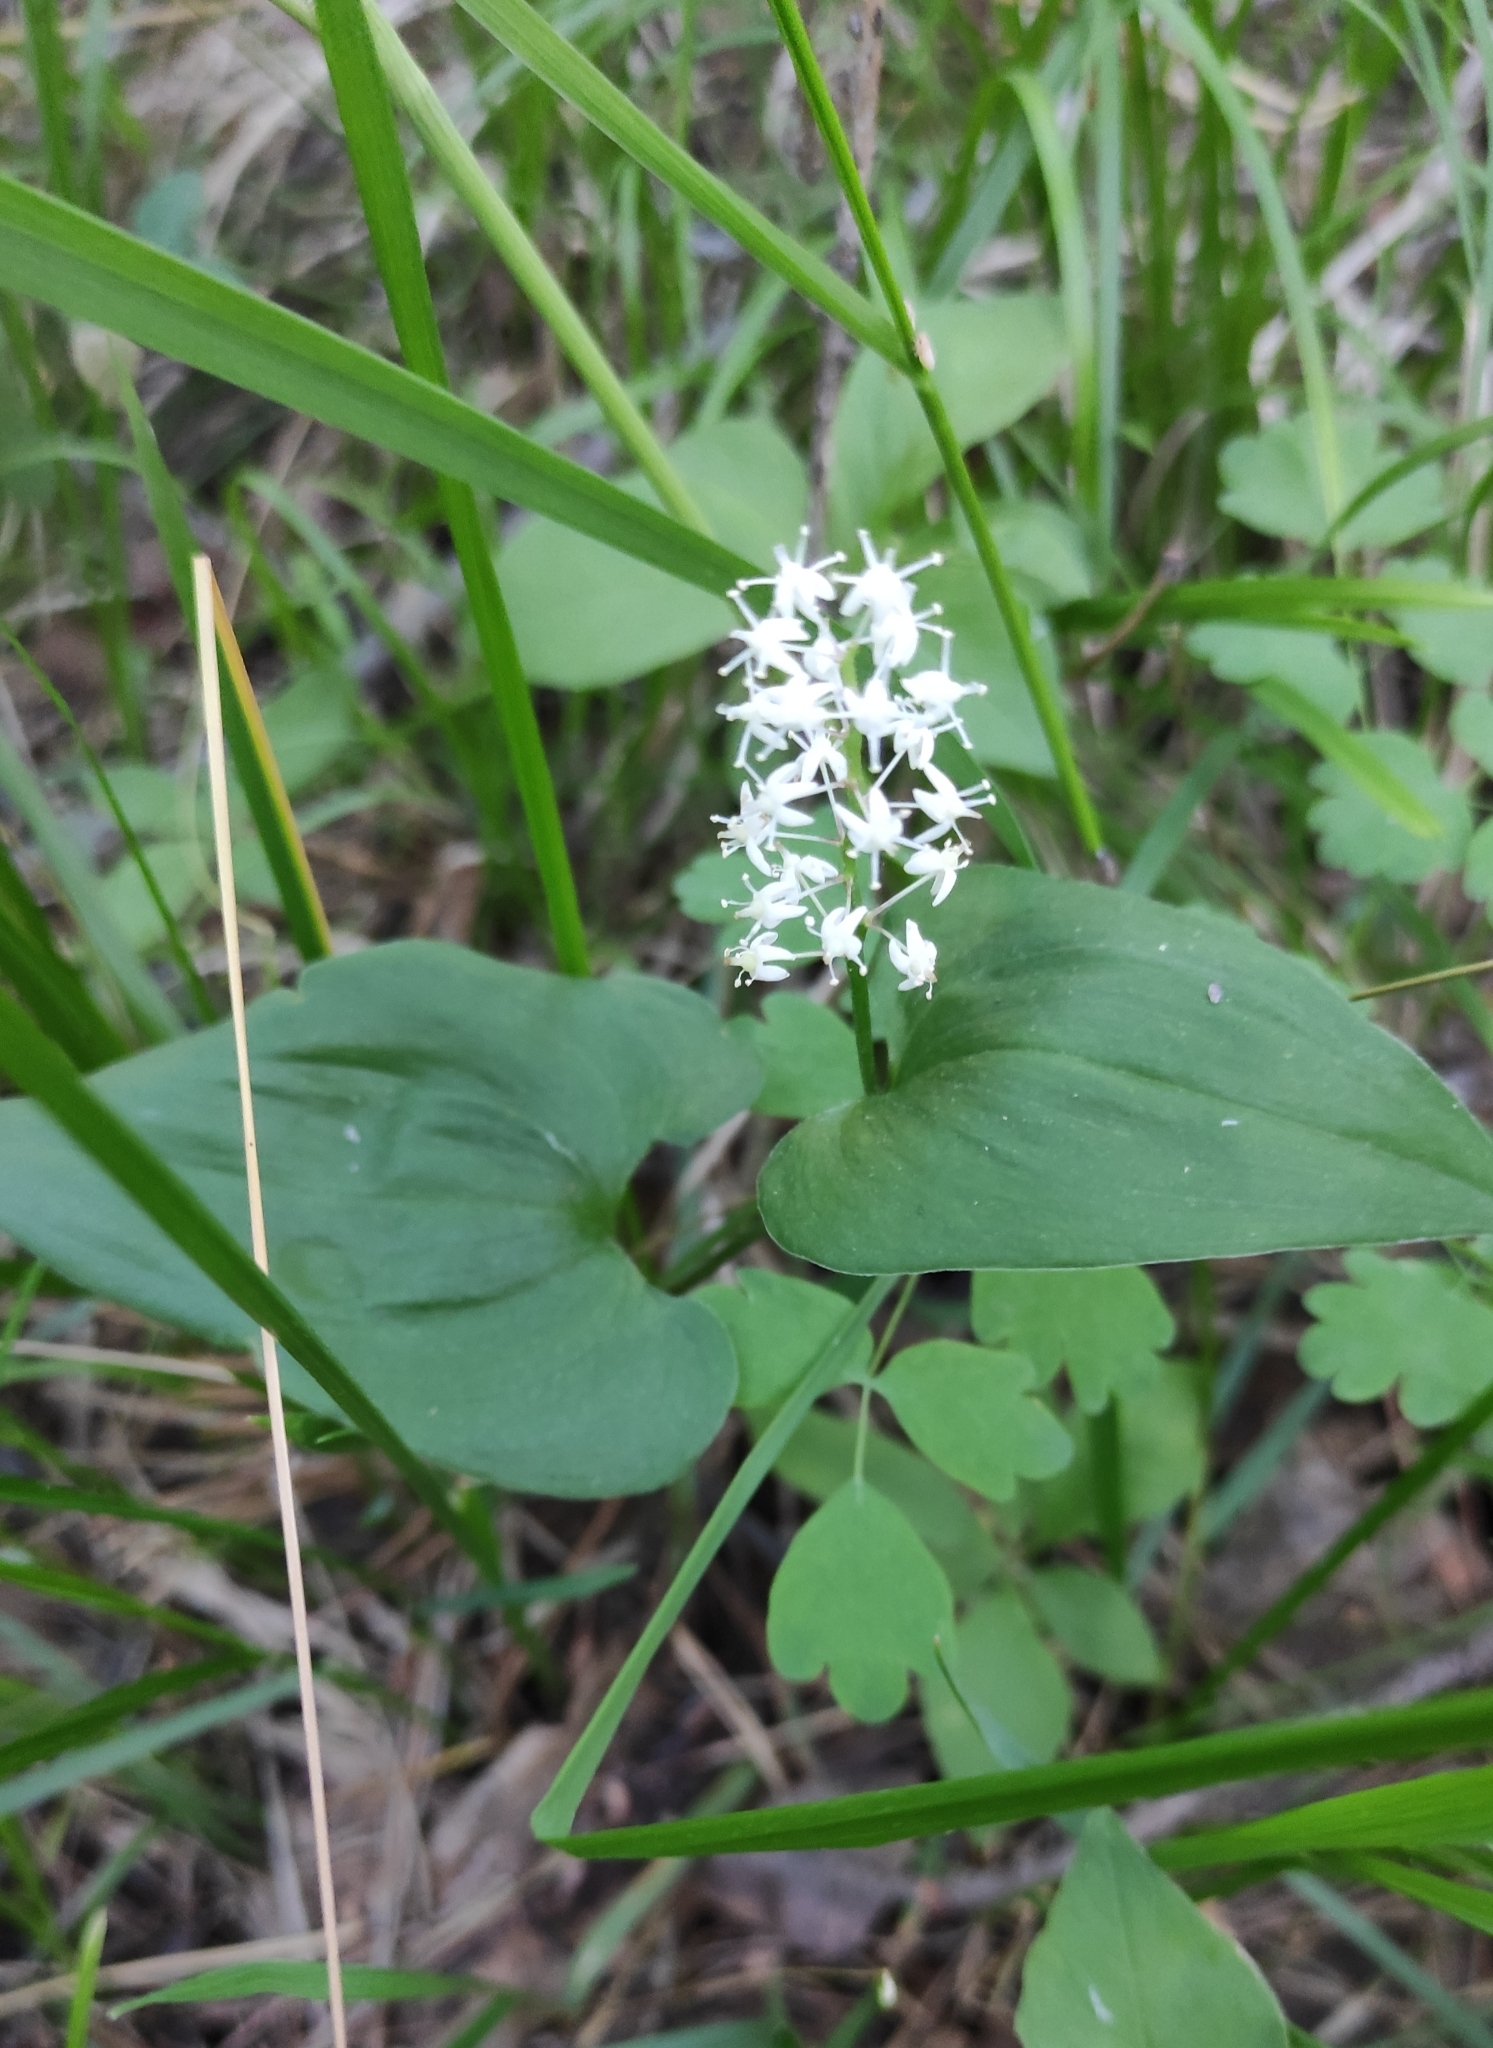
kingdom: Plantae
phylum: Tracheophyta
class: Liliopsida
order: Asparagales
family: Asparagaceae
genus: Maianthemum
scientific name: Maianthemum bifolium
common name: May lily
